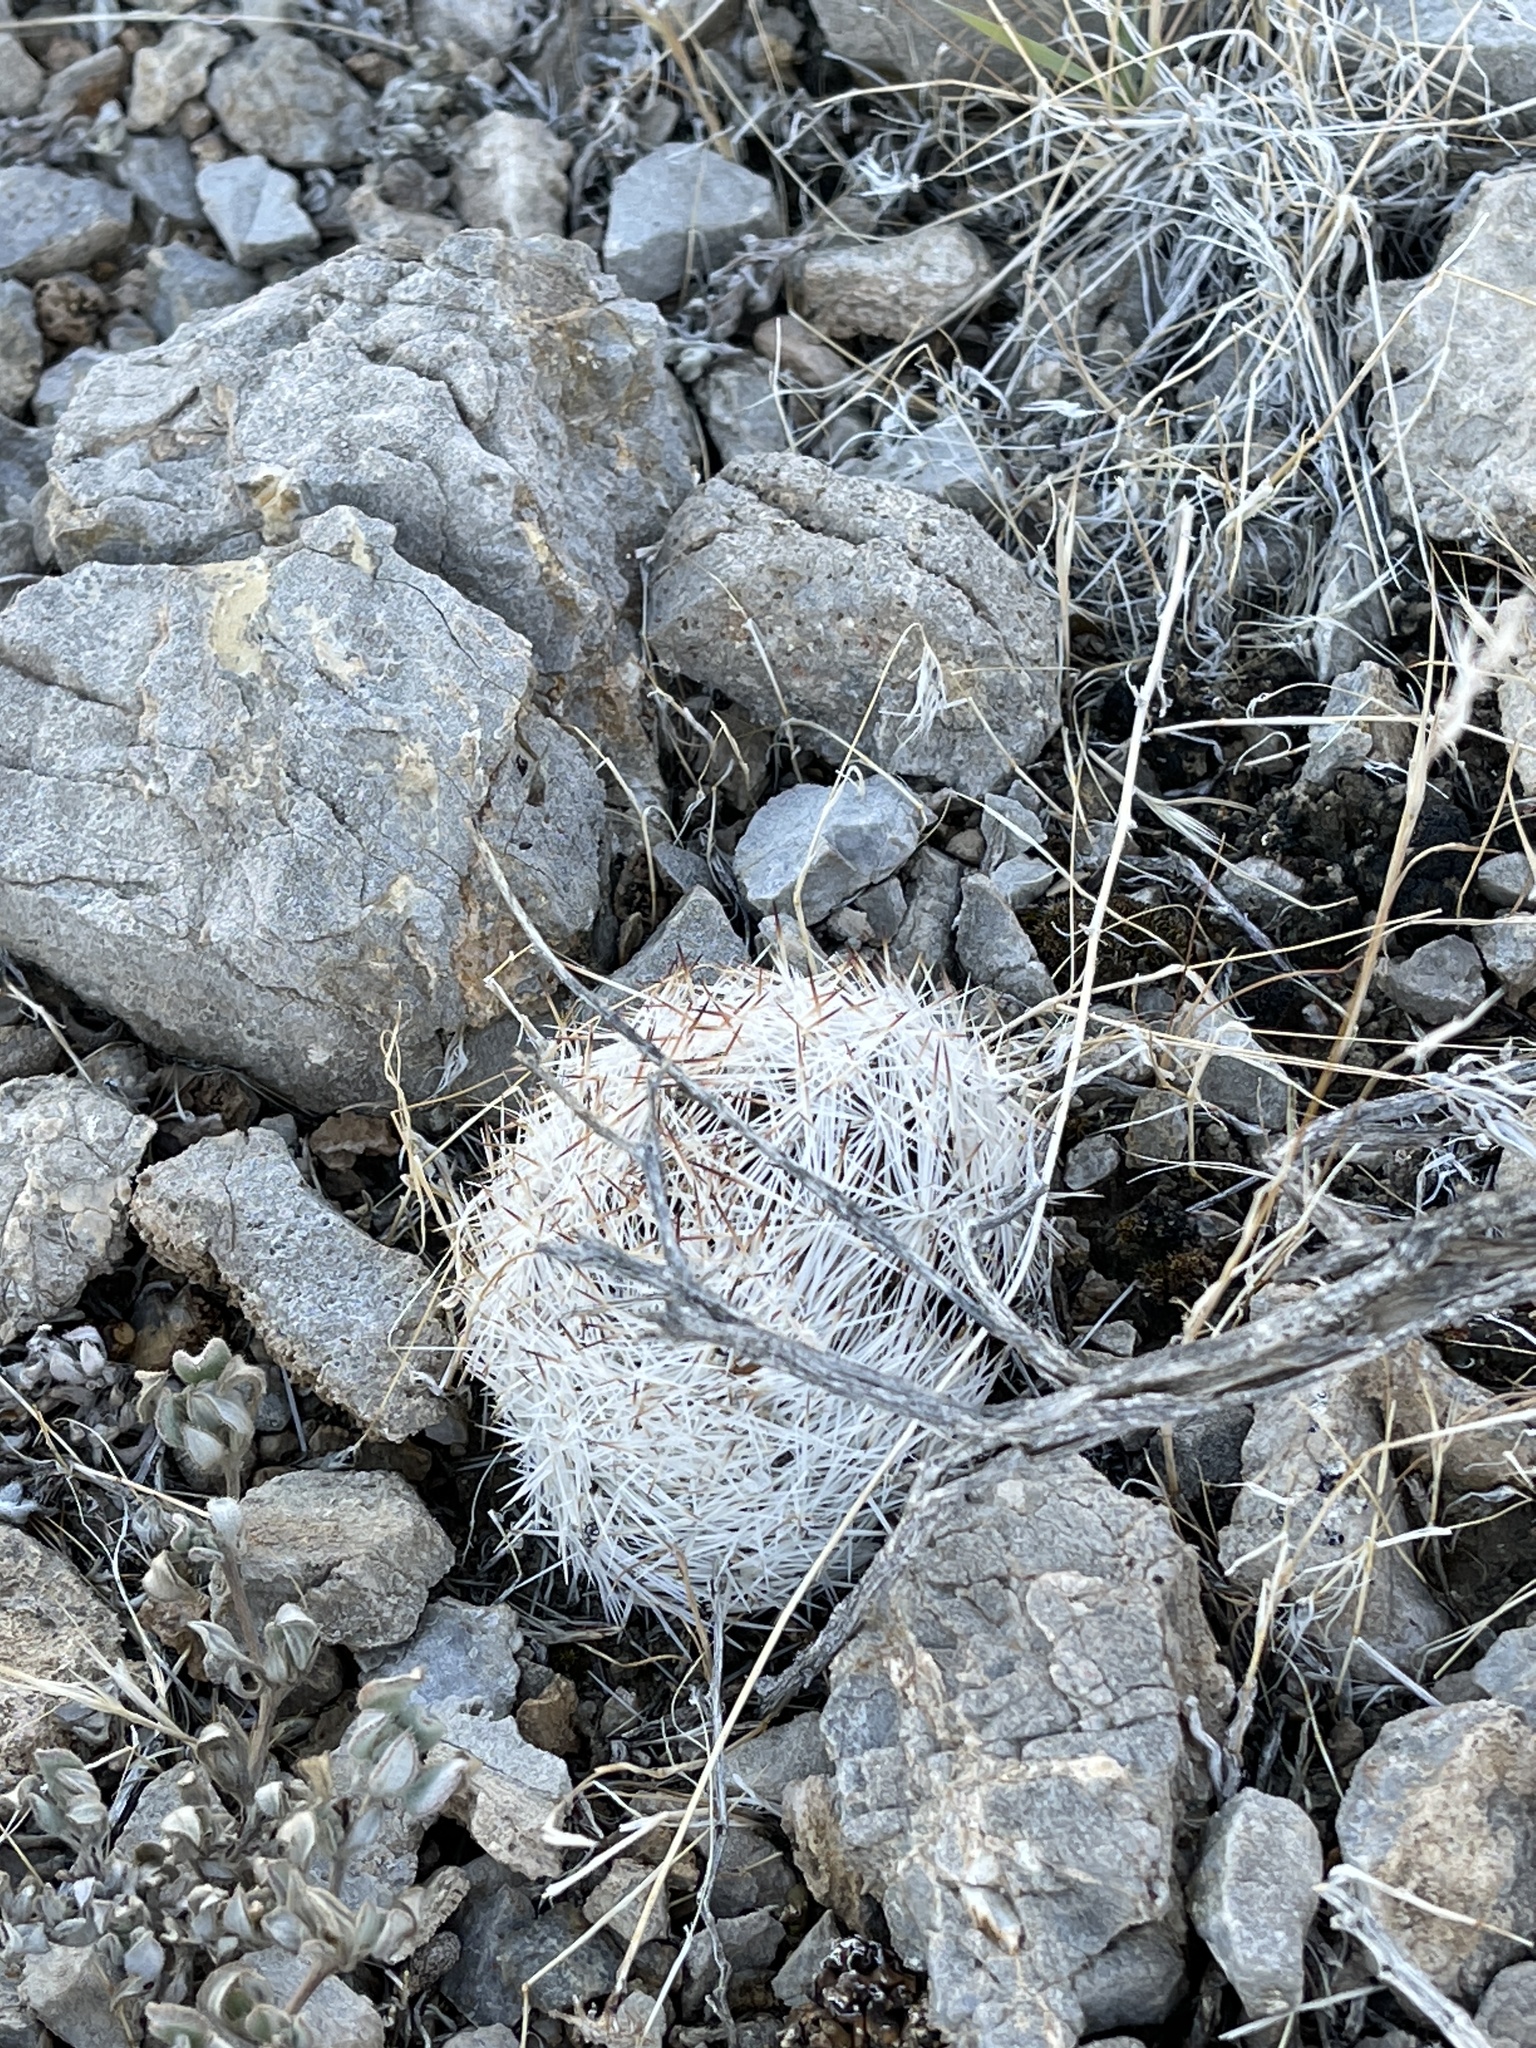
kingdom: Plantae
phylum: Tracheophyta
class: Magnoliopsida
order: Caryophyllales
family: Cactaceae
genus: Pelecyphora
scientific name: Pelecyphora dasyacantha
